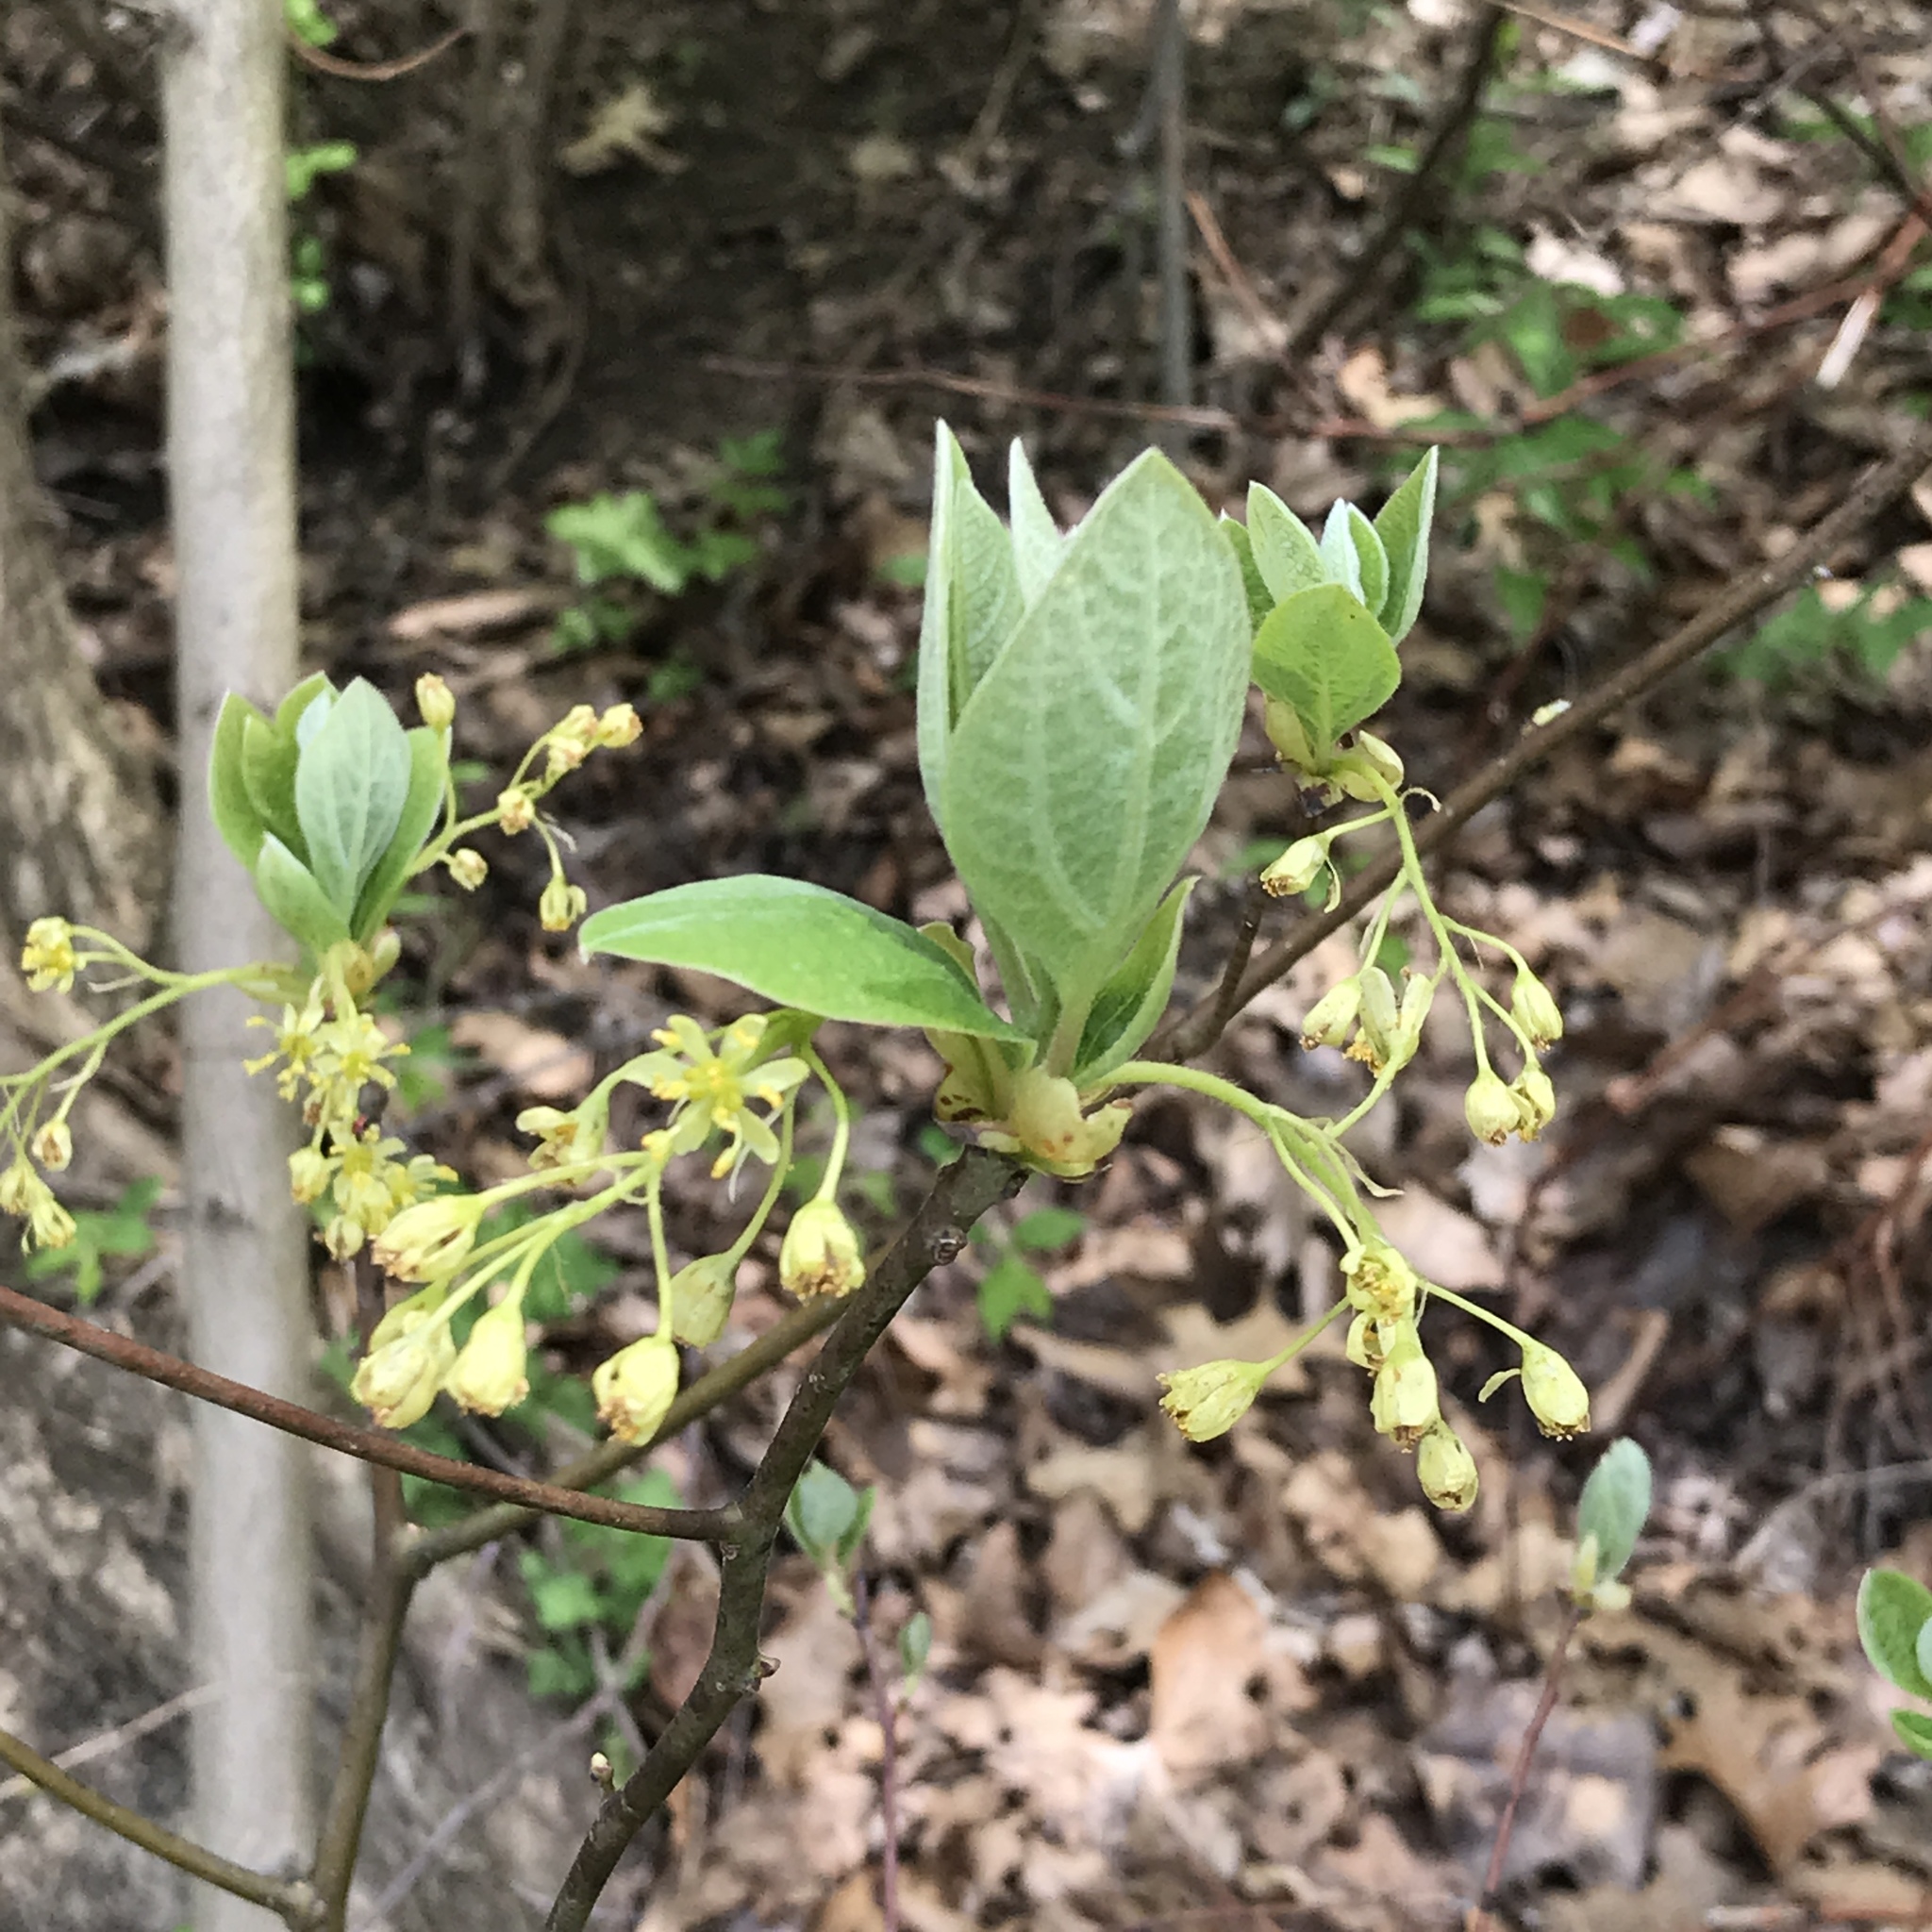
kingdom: Plantae
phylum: Tracheophyta
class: Magnoliopsida
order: Laurales
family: Lauraceae
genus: Sassafras
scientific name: Sassafras albidum
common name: Sassafras
